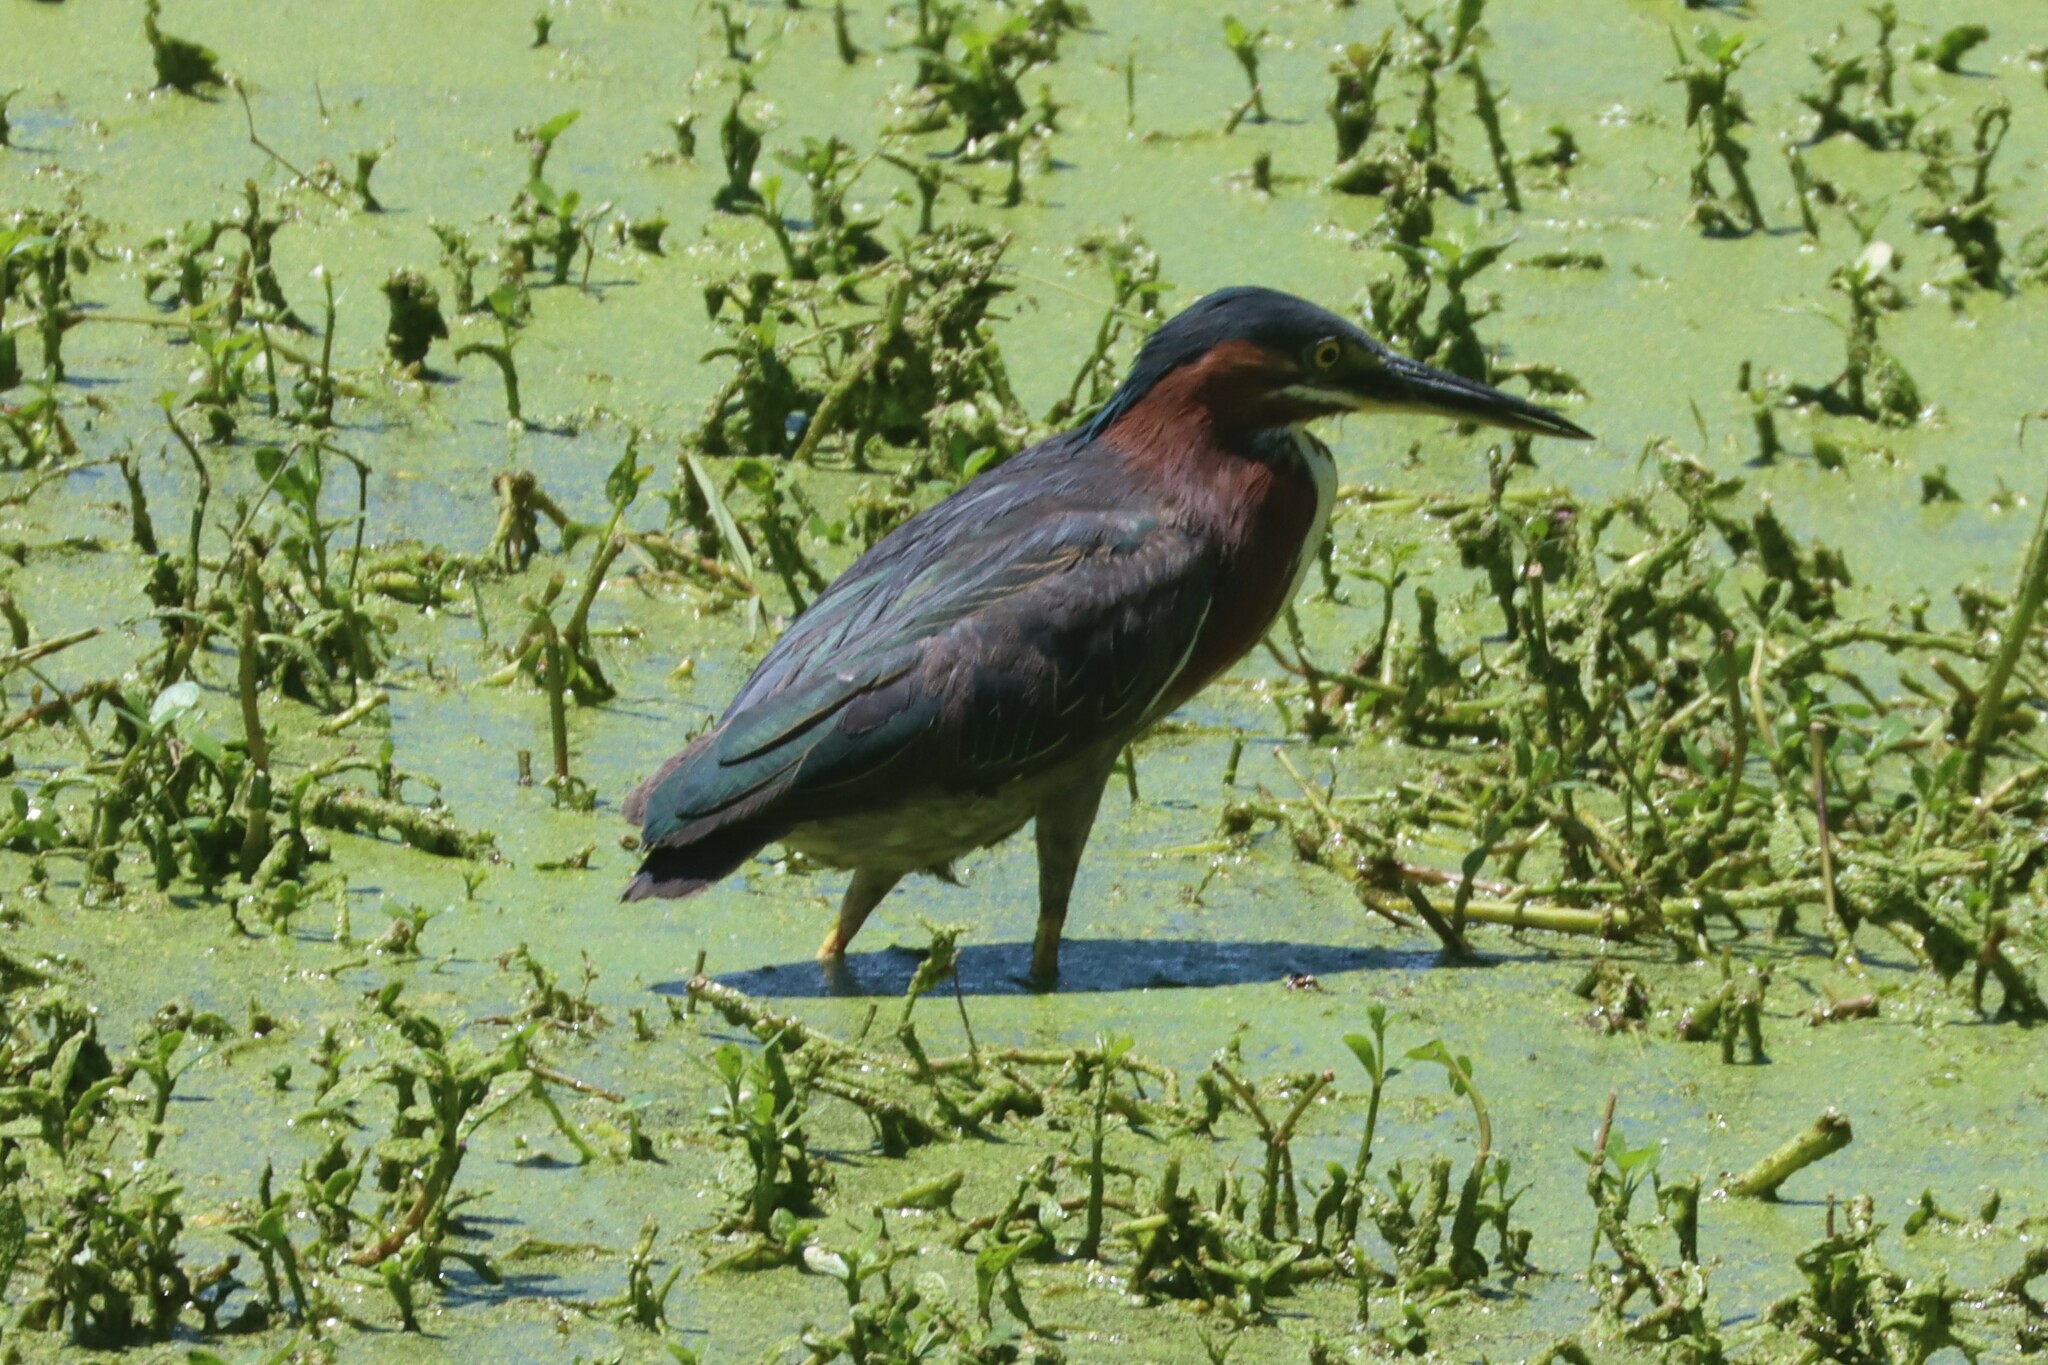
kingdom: Animalia
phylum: Chordata
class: Aves
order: Pelecaniformes
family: Ardeidae
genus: Butorides
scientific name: Butorides virescens
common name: Green heron
